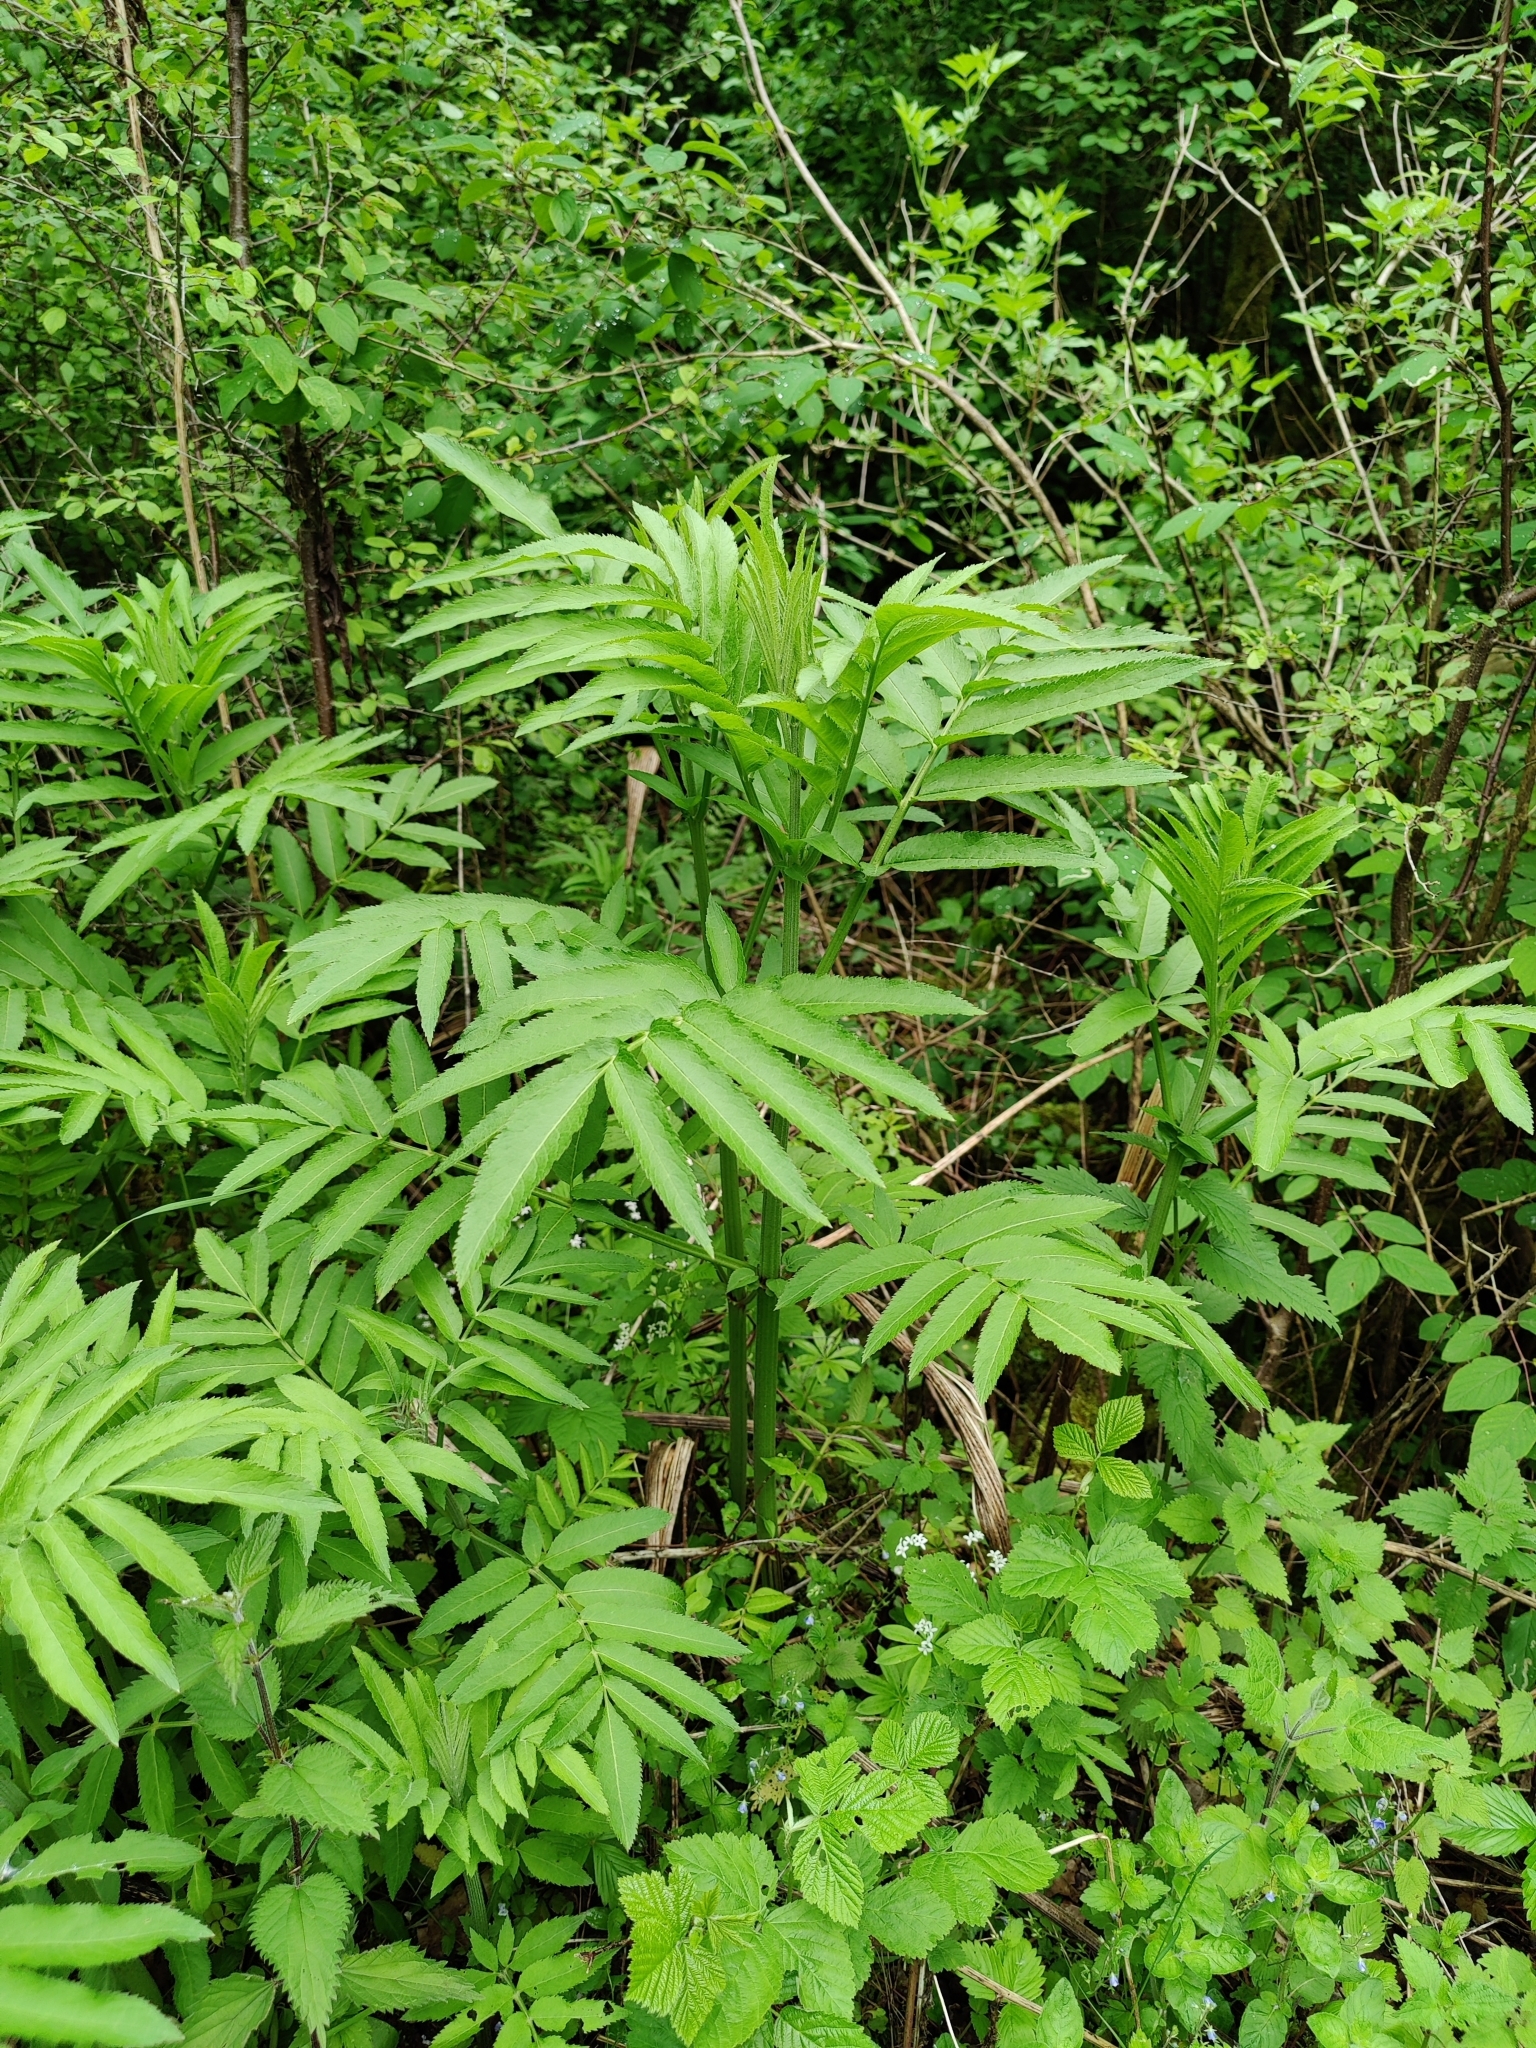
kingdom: Plantae
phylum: Tracheophyta
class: Magnoliopsida
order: Dipsacales
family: Viburnaceae
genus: Sambucus
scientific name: Sambucus ebulus
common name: Dwarf elder
